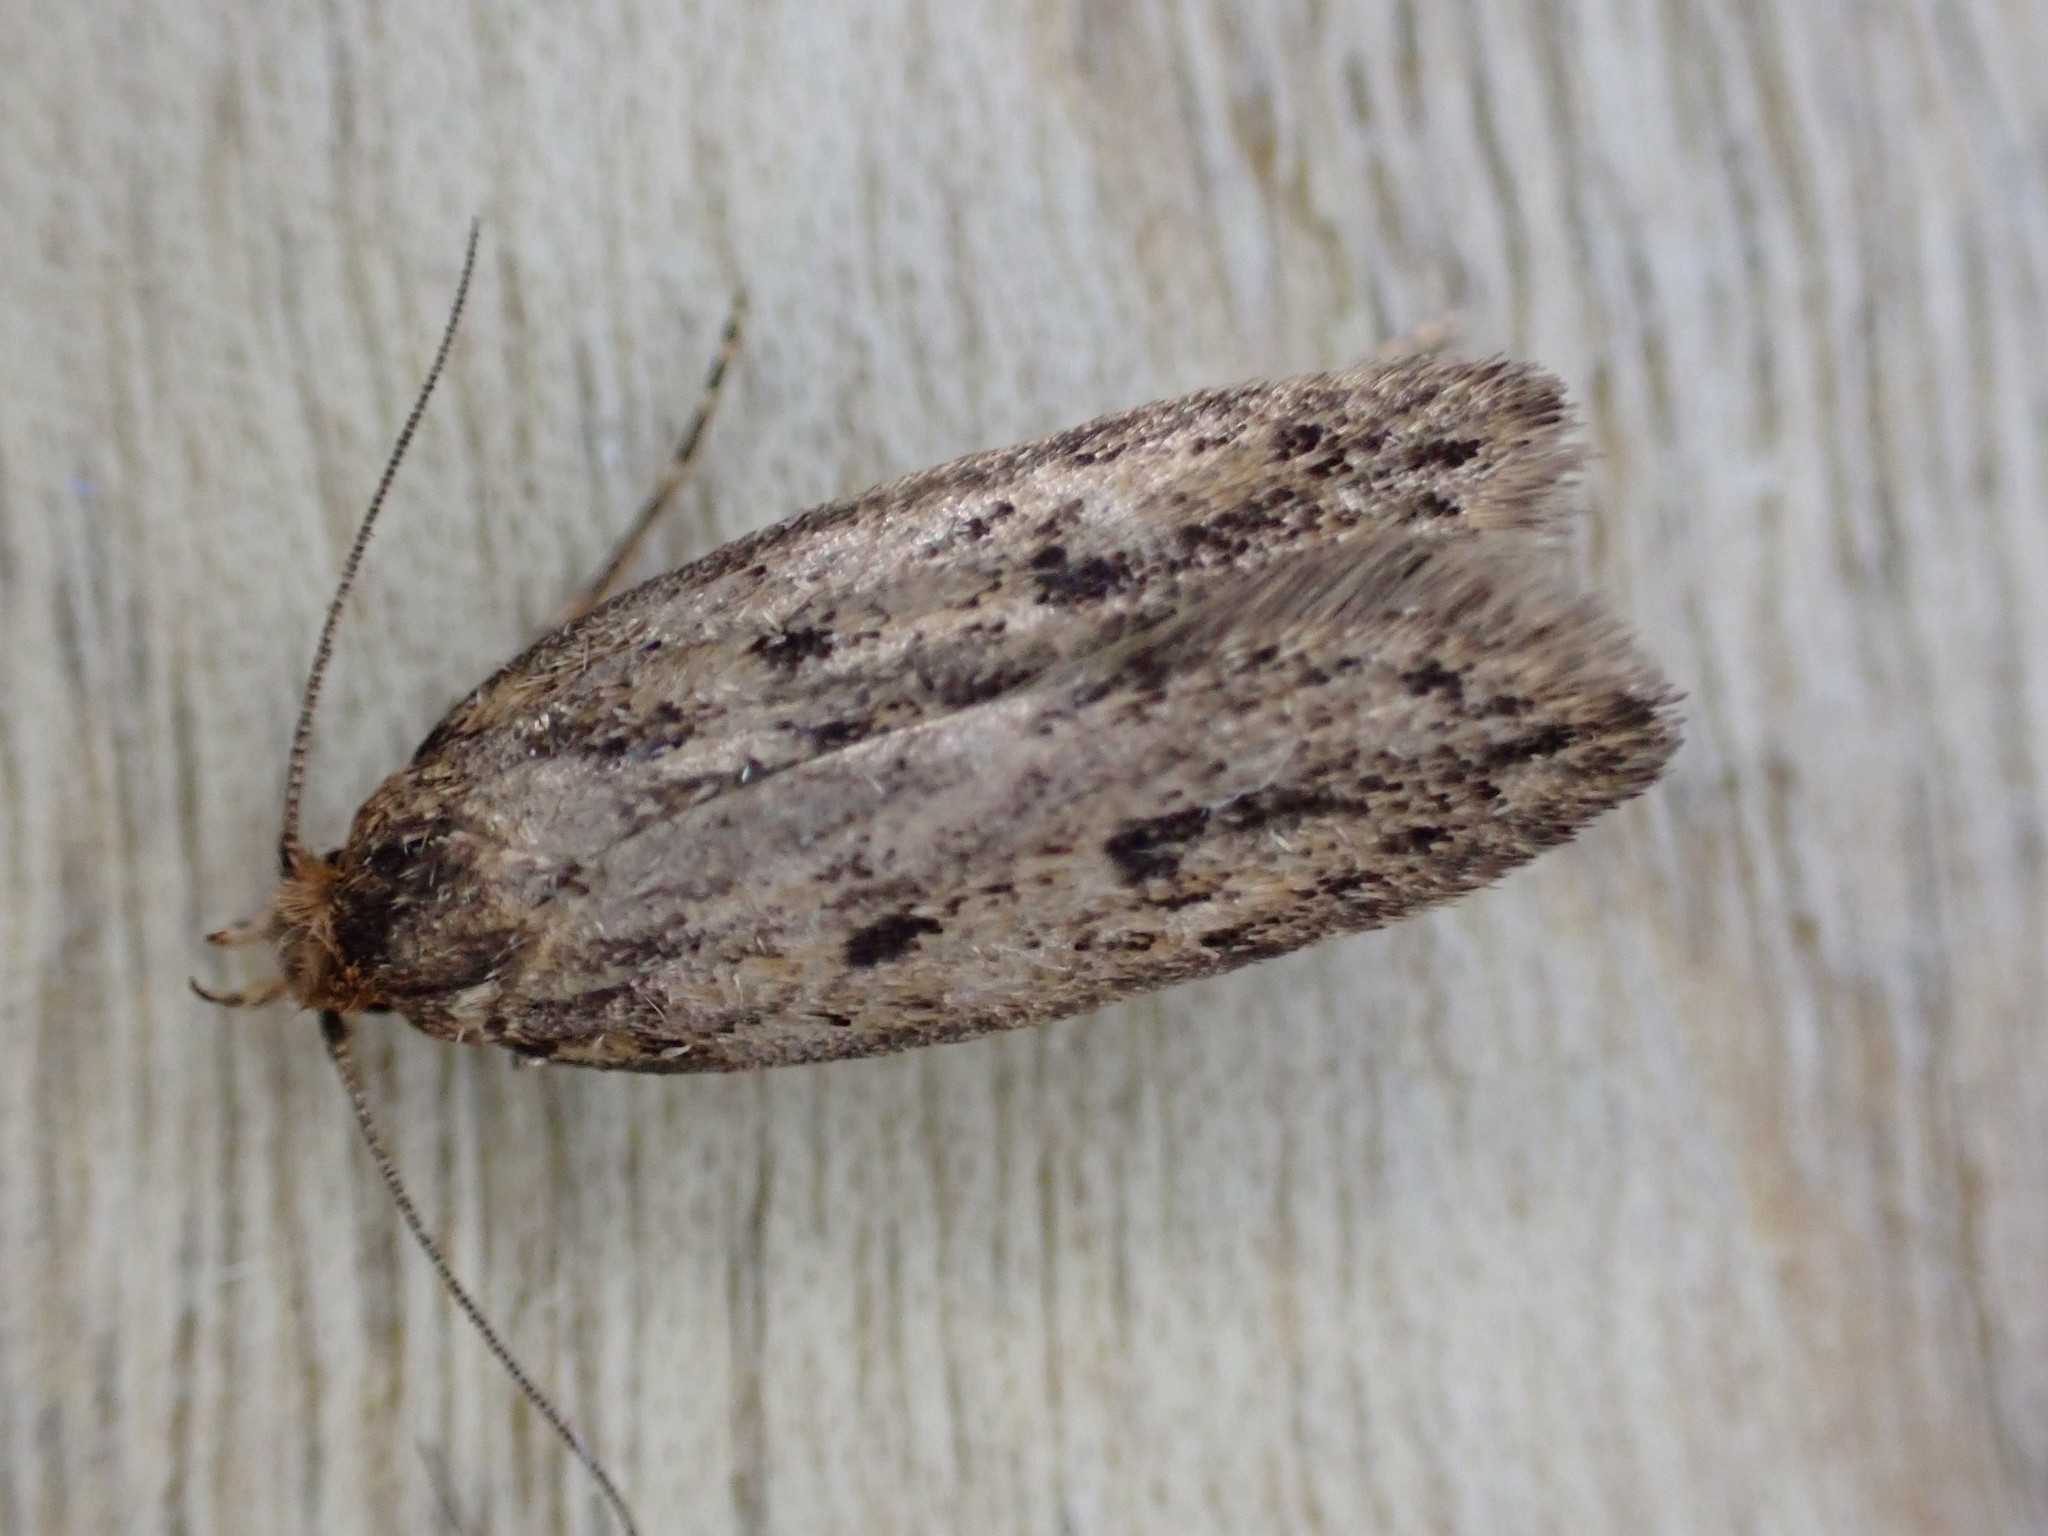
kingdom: Animalia
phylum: Arthropoda
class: Insecta
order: Lepidoptera
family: Oecophoridae
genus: Hofmannophila
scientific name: Hofmannophila pseudospretella
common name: Brown house moth
